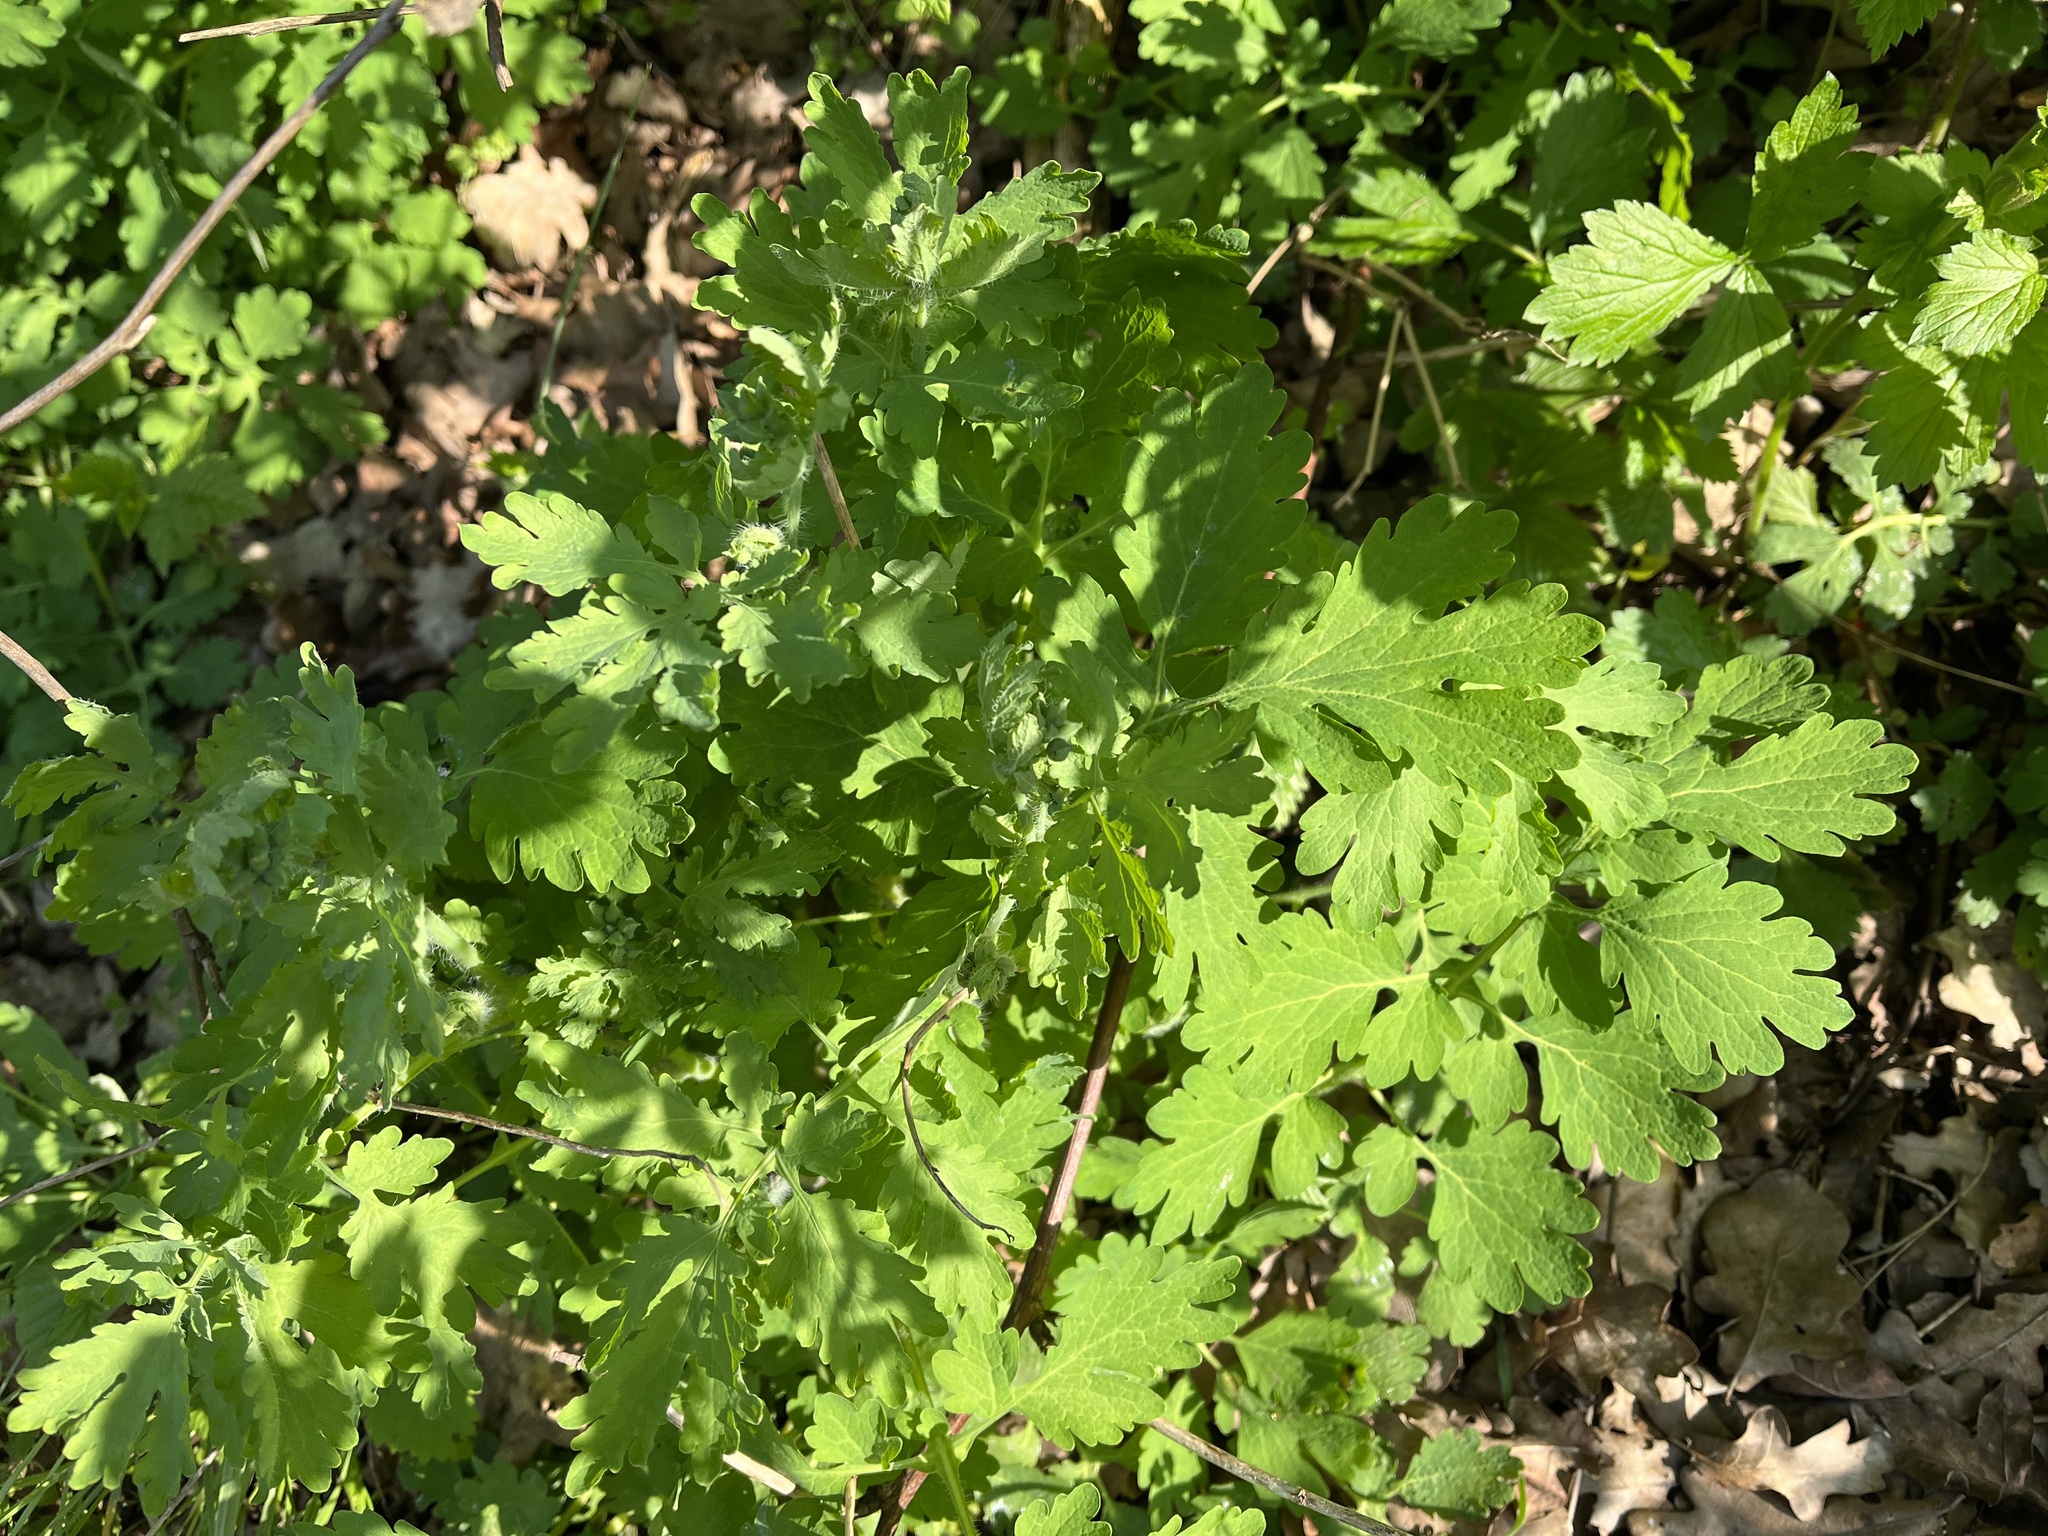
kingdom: Plantae
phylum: Tracheophyta
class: Magnoliopsida
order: Ranunculales
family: Papaveraceae
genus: Chelidonium
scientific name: Chelidonium majus
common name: Greater celandine
